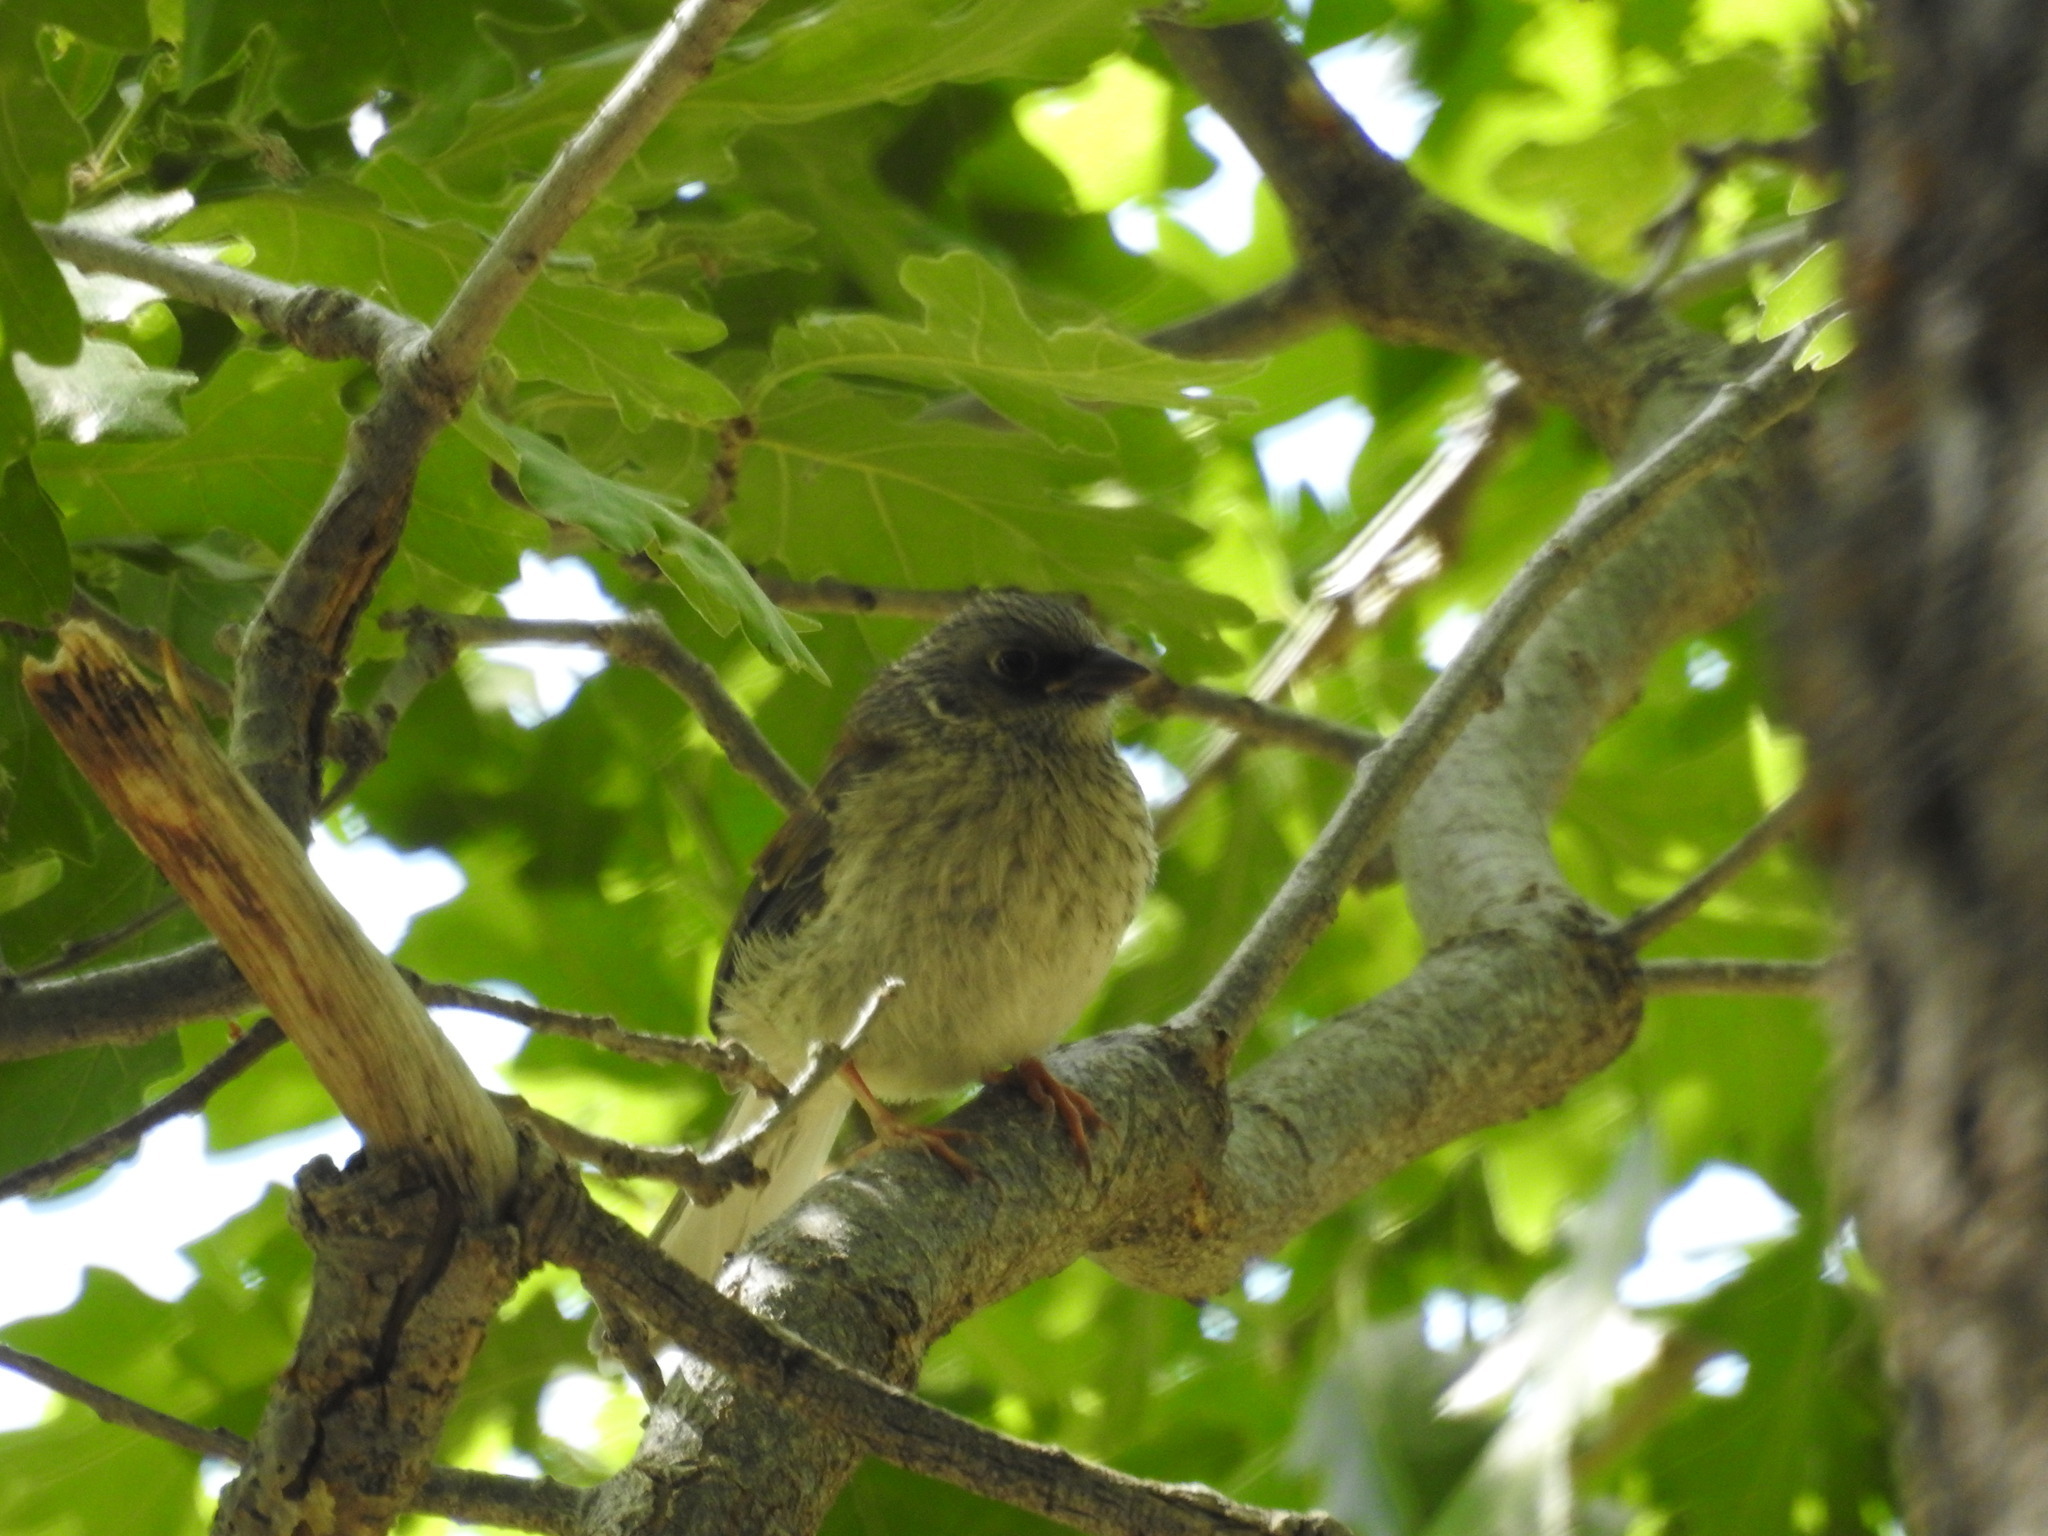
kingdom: Animalia
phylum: Chordata
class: Aves
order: Passeriformes
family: Passerellidae
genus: Junco
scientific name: Junco hyemalis
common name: Dark-eyed junco
